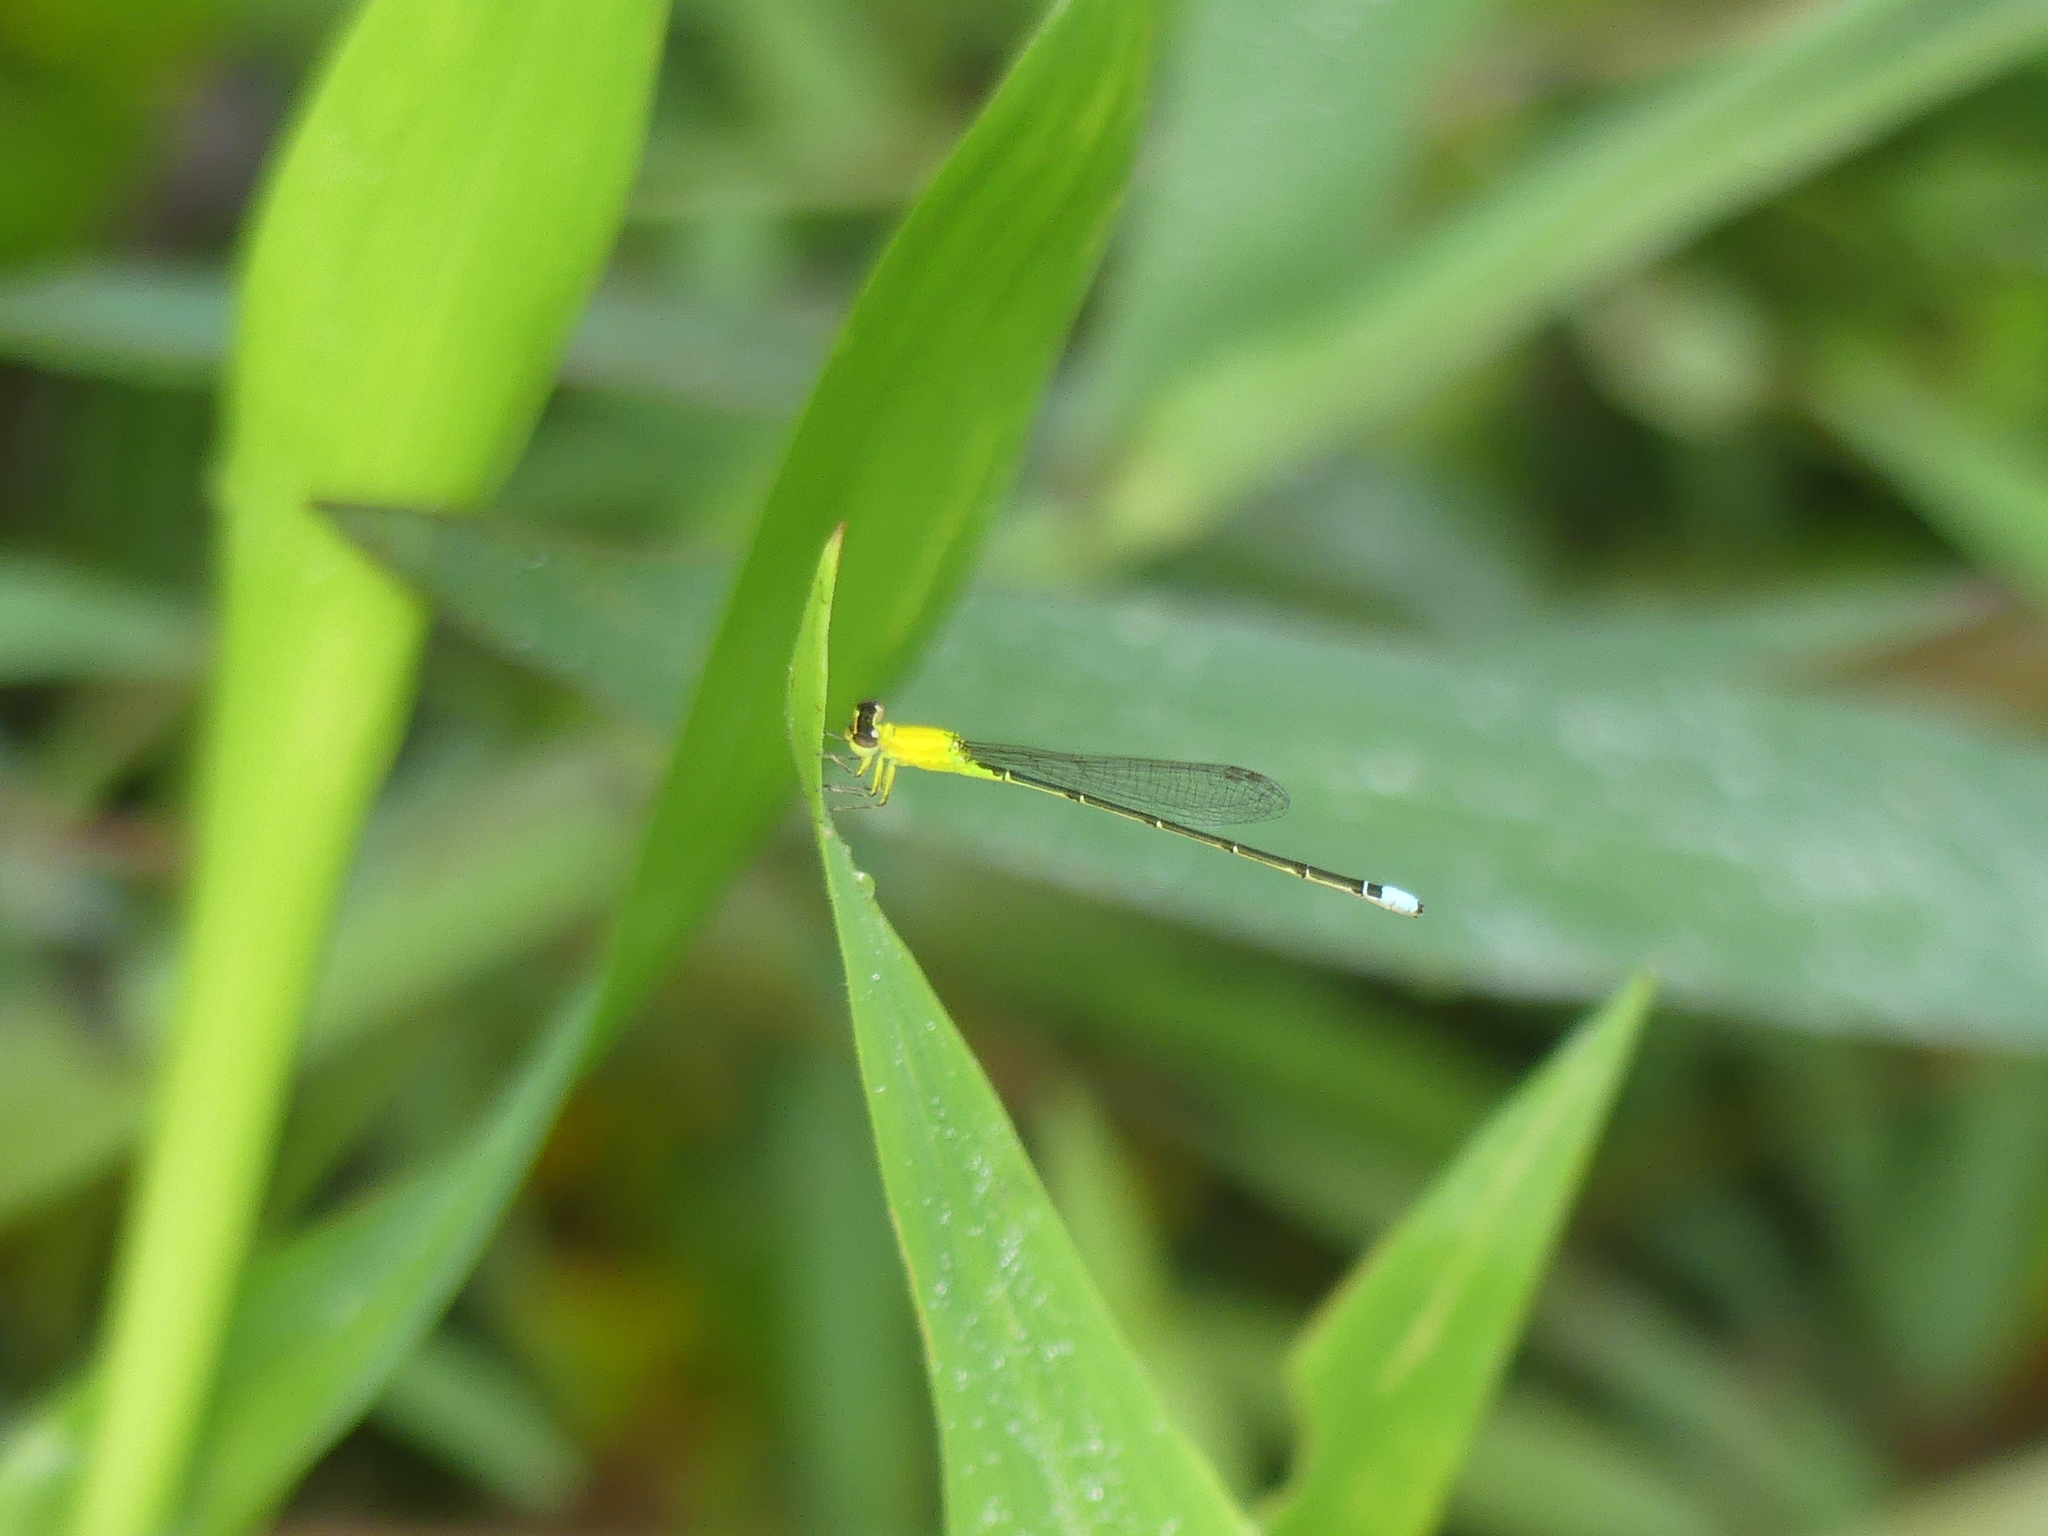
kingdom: Animalia
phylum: Arthropoda
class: Insecta
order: Odonata
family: Coenagrionidae
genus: Ischnura
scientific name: Ischnura capreolus
